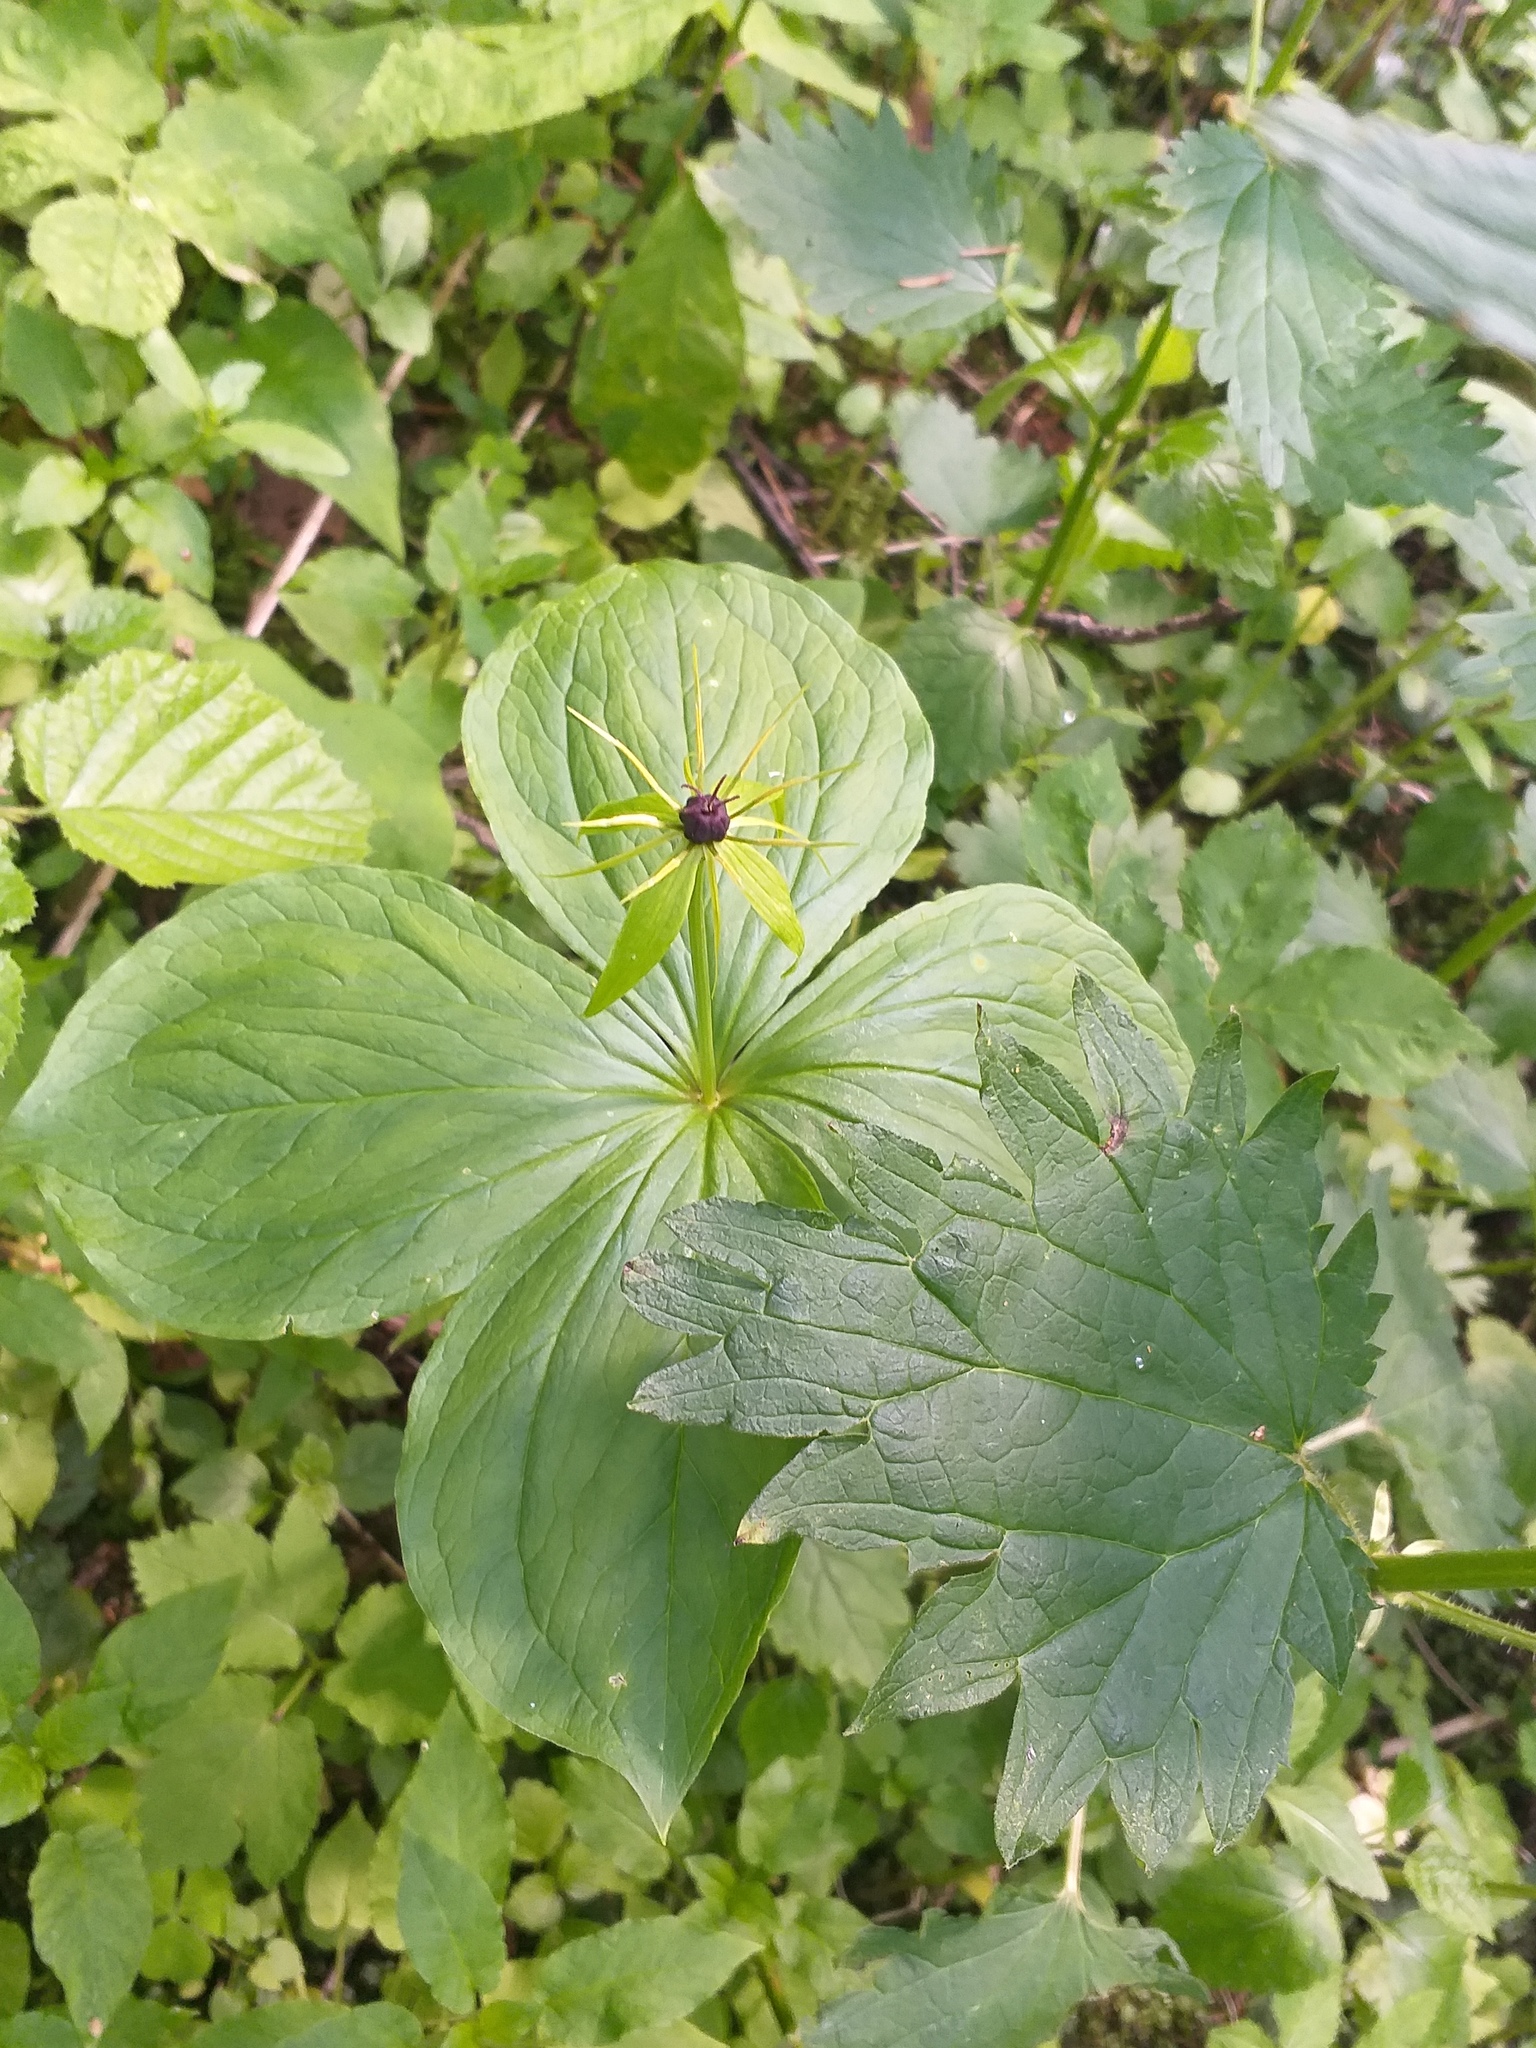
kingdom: Plantae
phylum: Tracheophyta
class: Liliopsida
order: Liliales
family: Melanthiaceae
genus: Paris
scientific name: Paris quadrifolia
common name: Herb-paris
